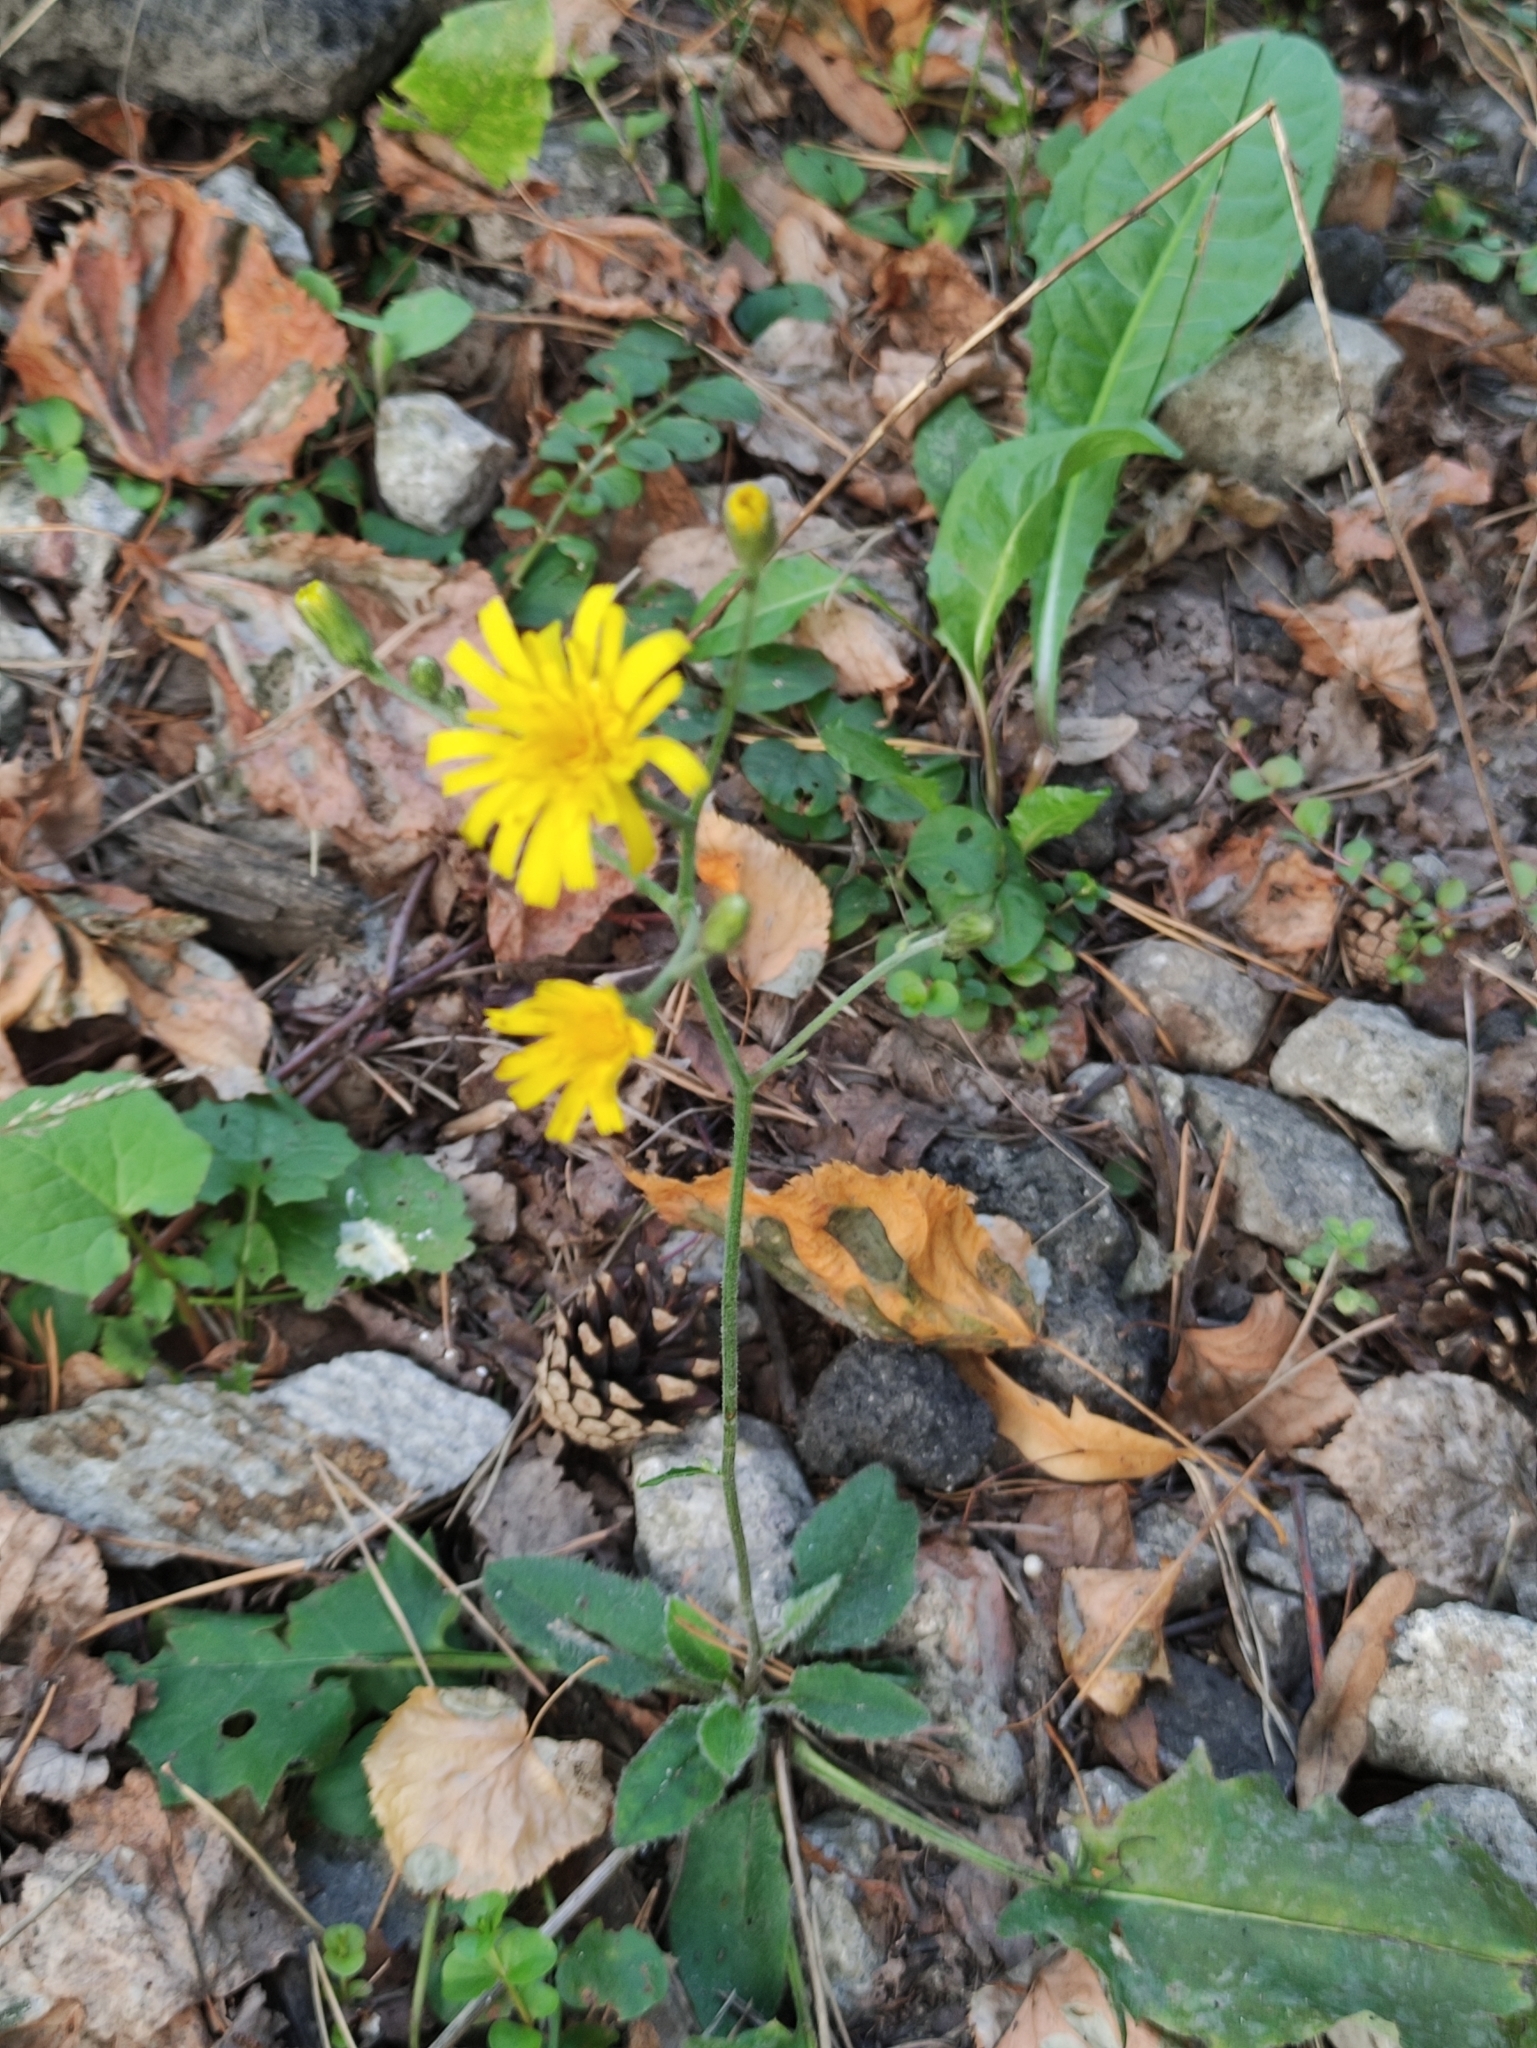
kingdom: Plantae
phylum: Tracheophyta
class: Magnoliopsida
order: Asterales
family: Asteraceae
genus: Hieracium
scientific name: Hieracium murorum
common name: Wall hawkweed
